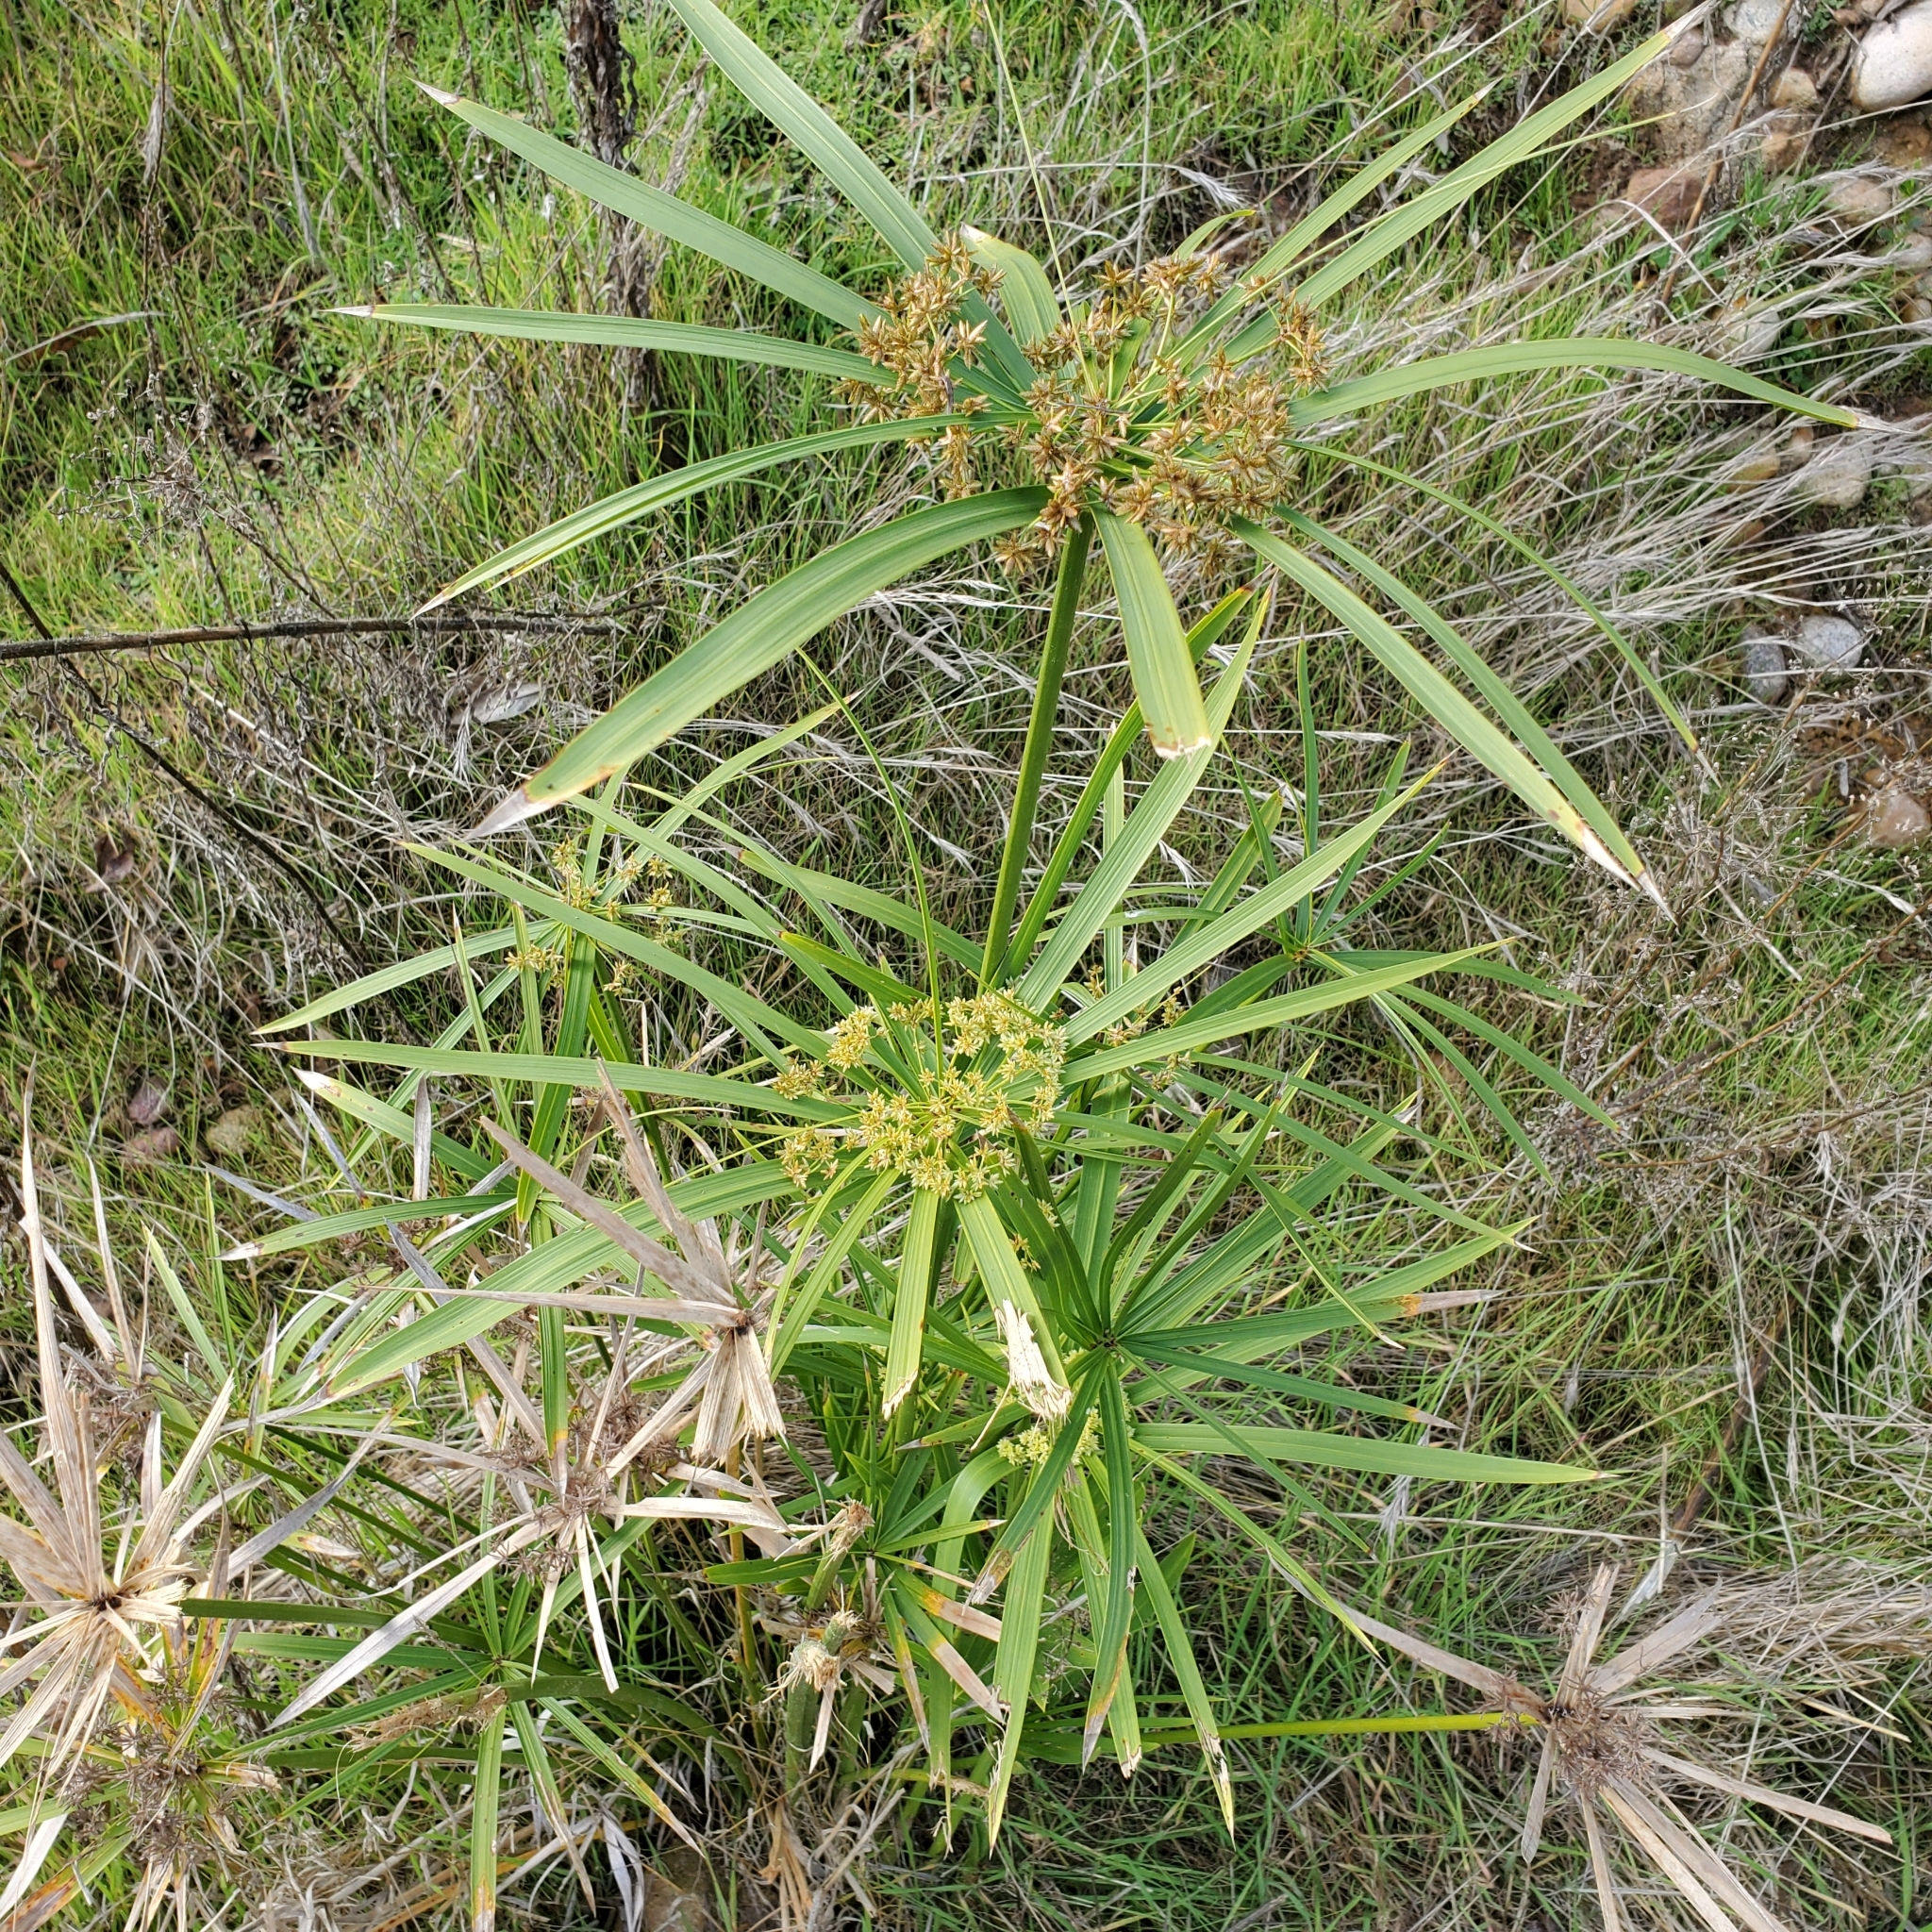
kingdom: Plantae
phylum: Tracheophyta
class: Liliopsida
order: Poales
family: Cyperaceae
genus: Cyperus
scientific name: Cyperus alternifolius
